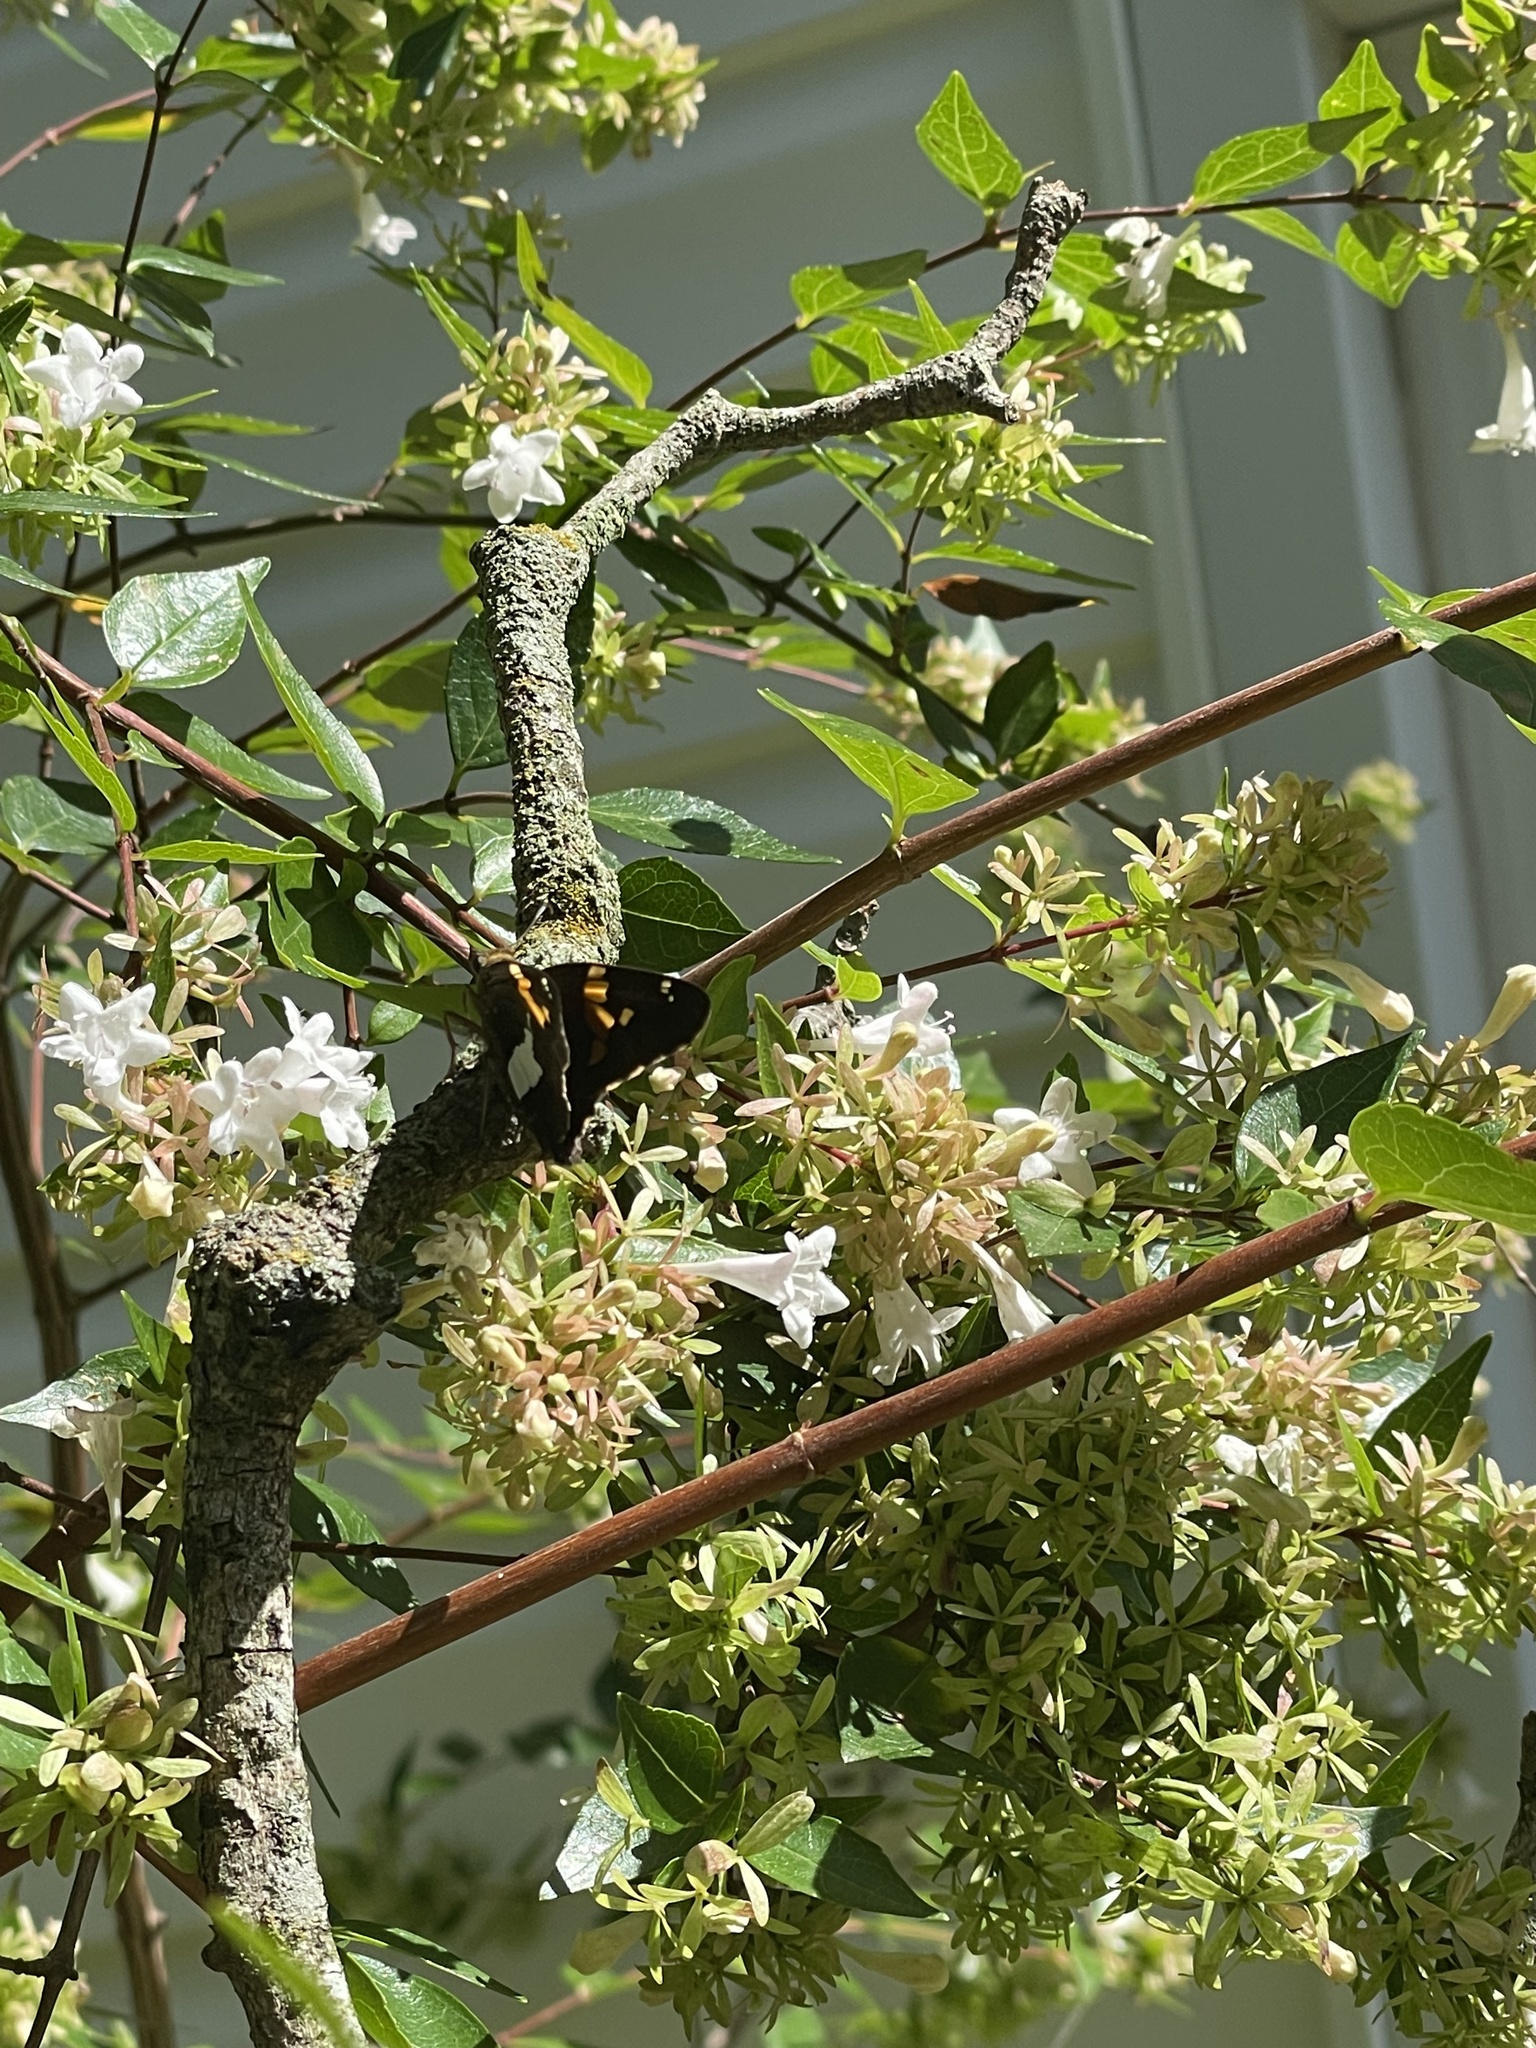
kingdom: Animalia
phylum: Arthropoda
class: Insecta
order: Lepidoptera
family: Hesperiidae
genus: Epargyreus
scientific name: Epargyreus clarus
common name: Silver-spotted skipper
